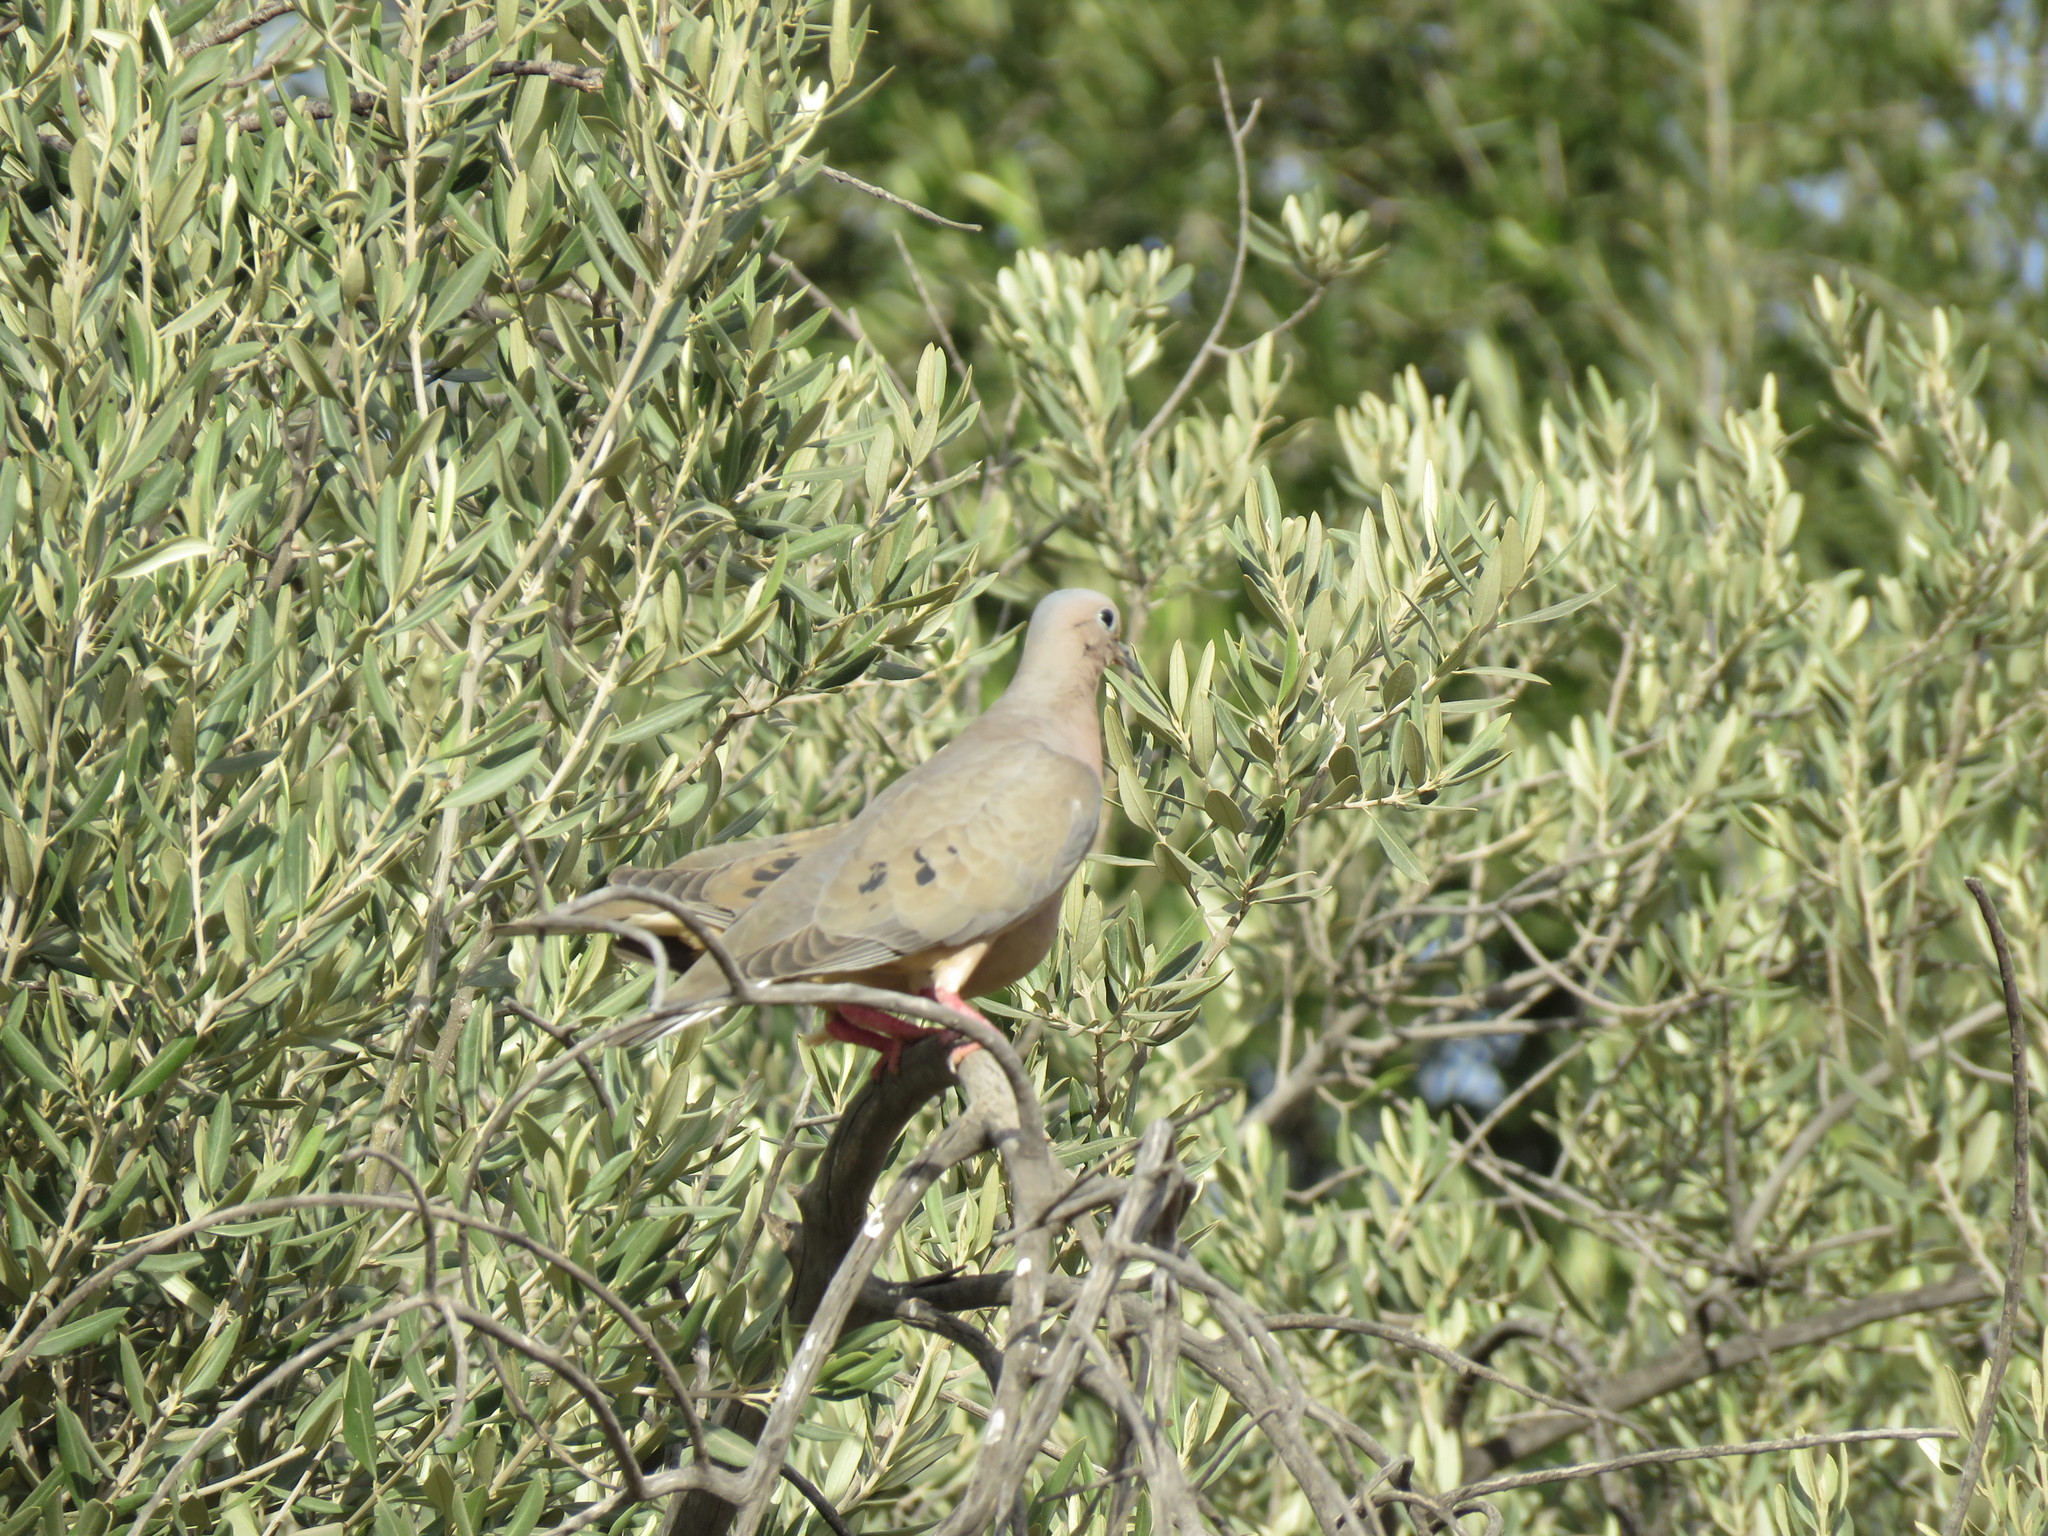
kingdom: Animalia
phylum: Chordata
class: Aves
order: Columbiformes
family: Columbidae
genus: Zenaida
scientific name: Zenaida auriculata
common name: Eared dove
